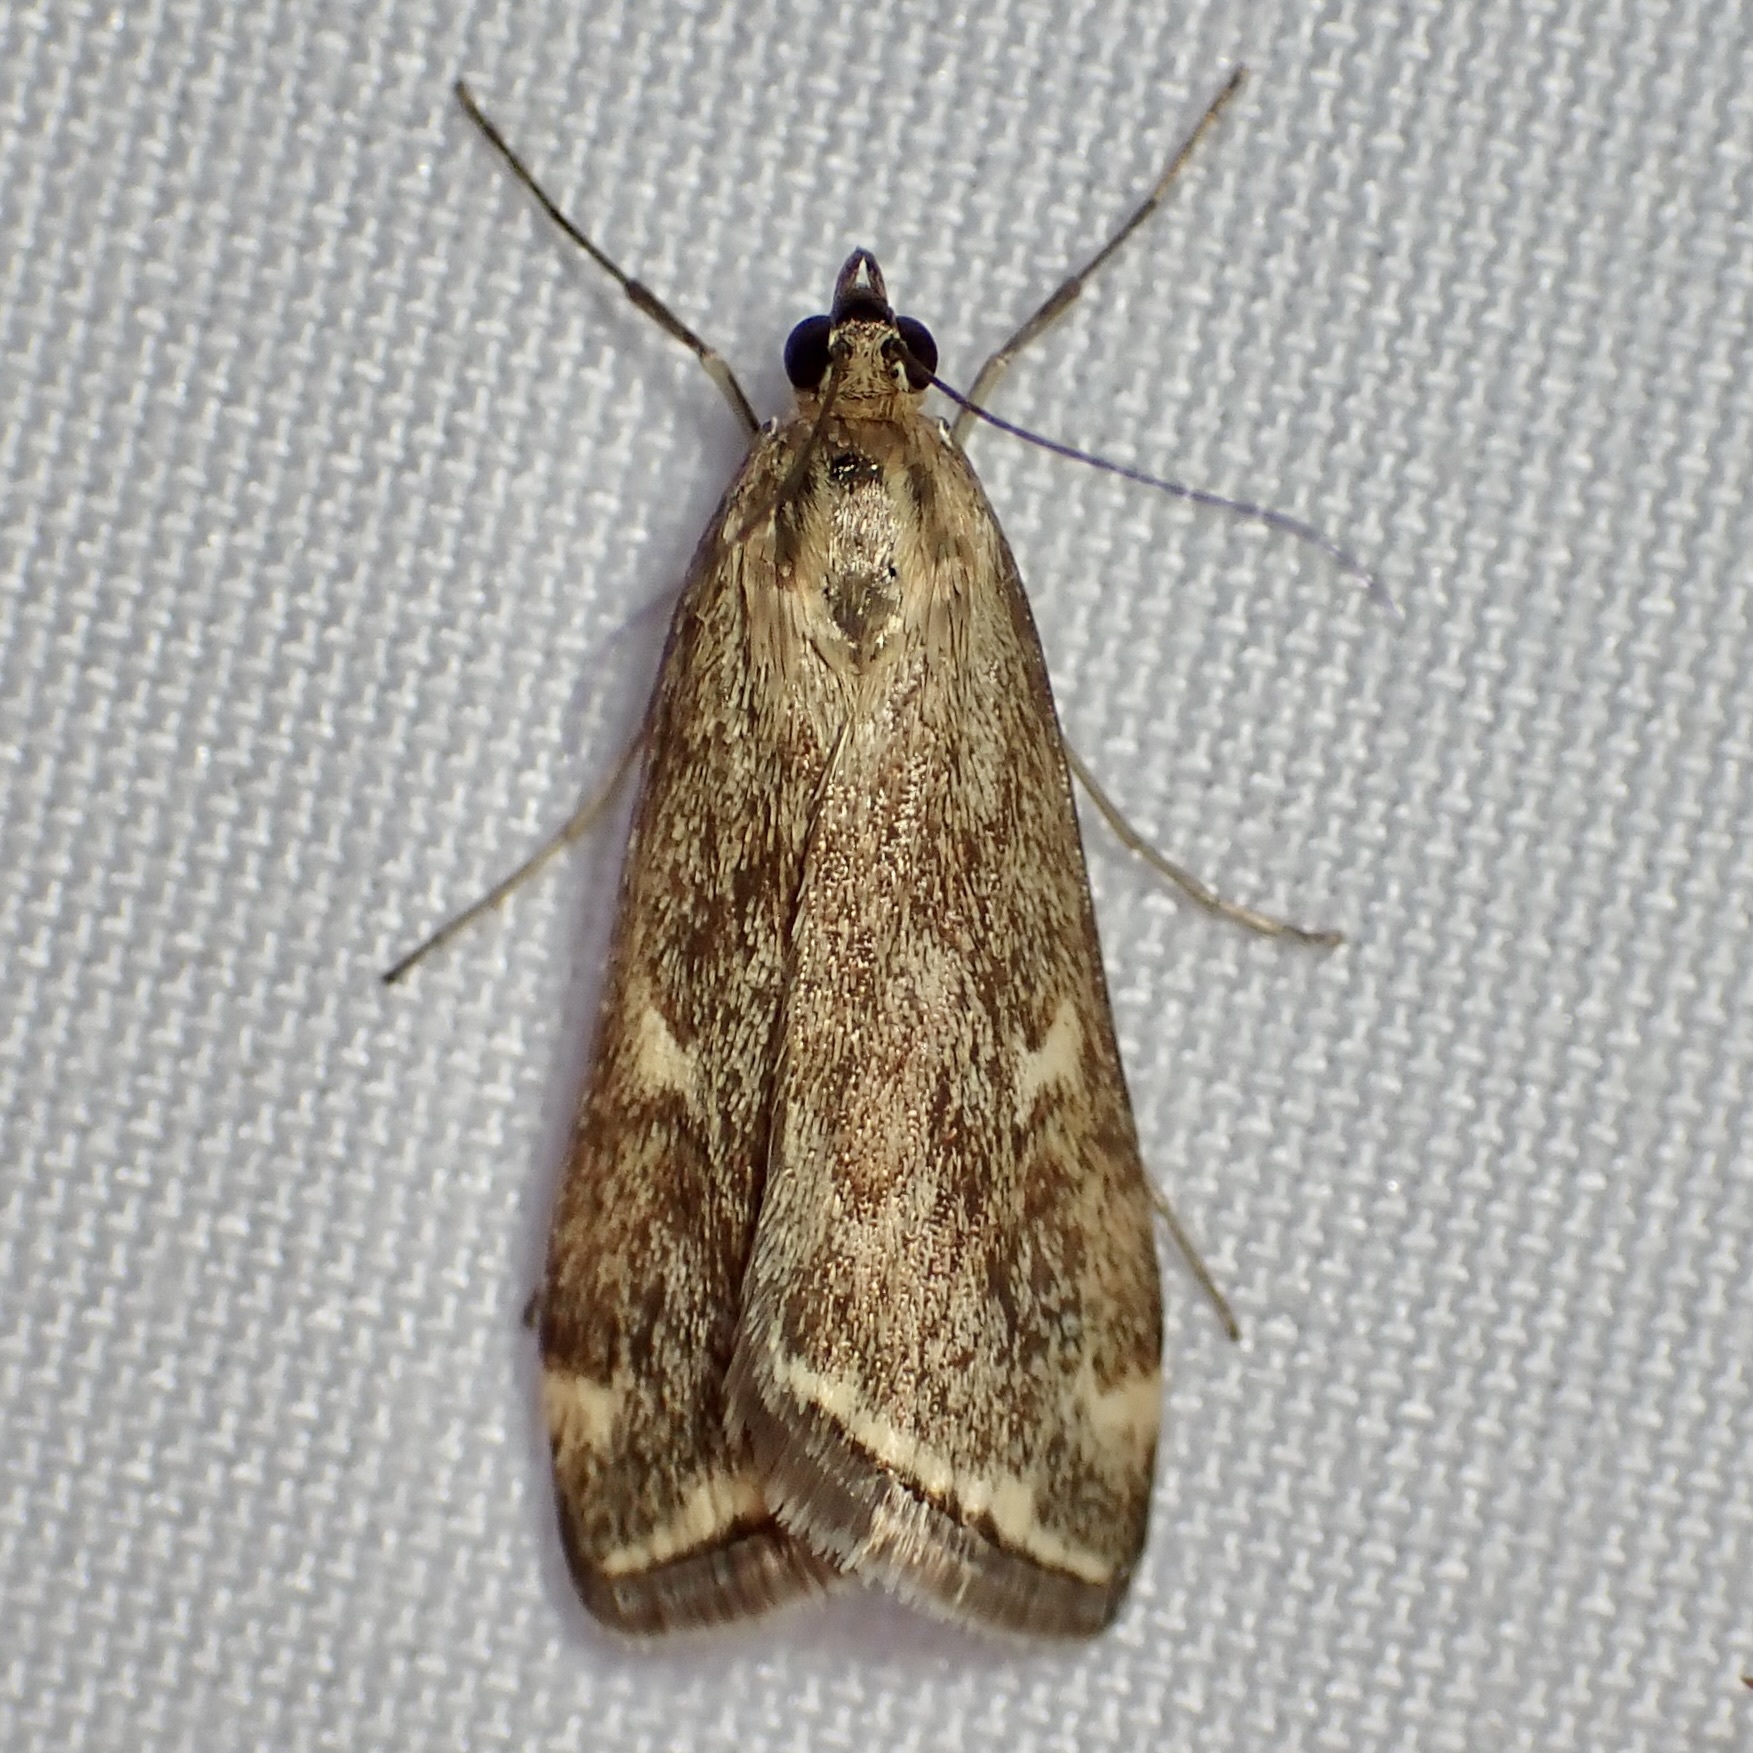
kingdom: Animalia
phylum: Arthropoda
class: Insecta
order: Lepidoptera
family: Crambidae
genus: Loxostege
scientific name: Loxostege
